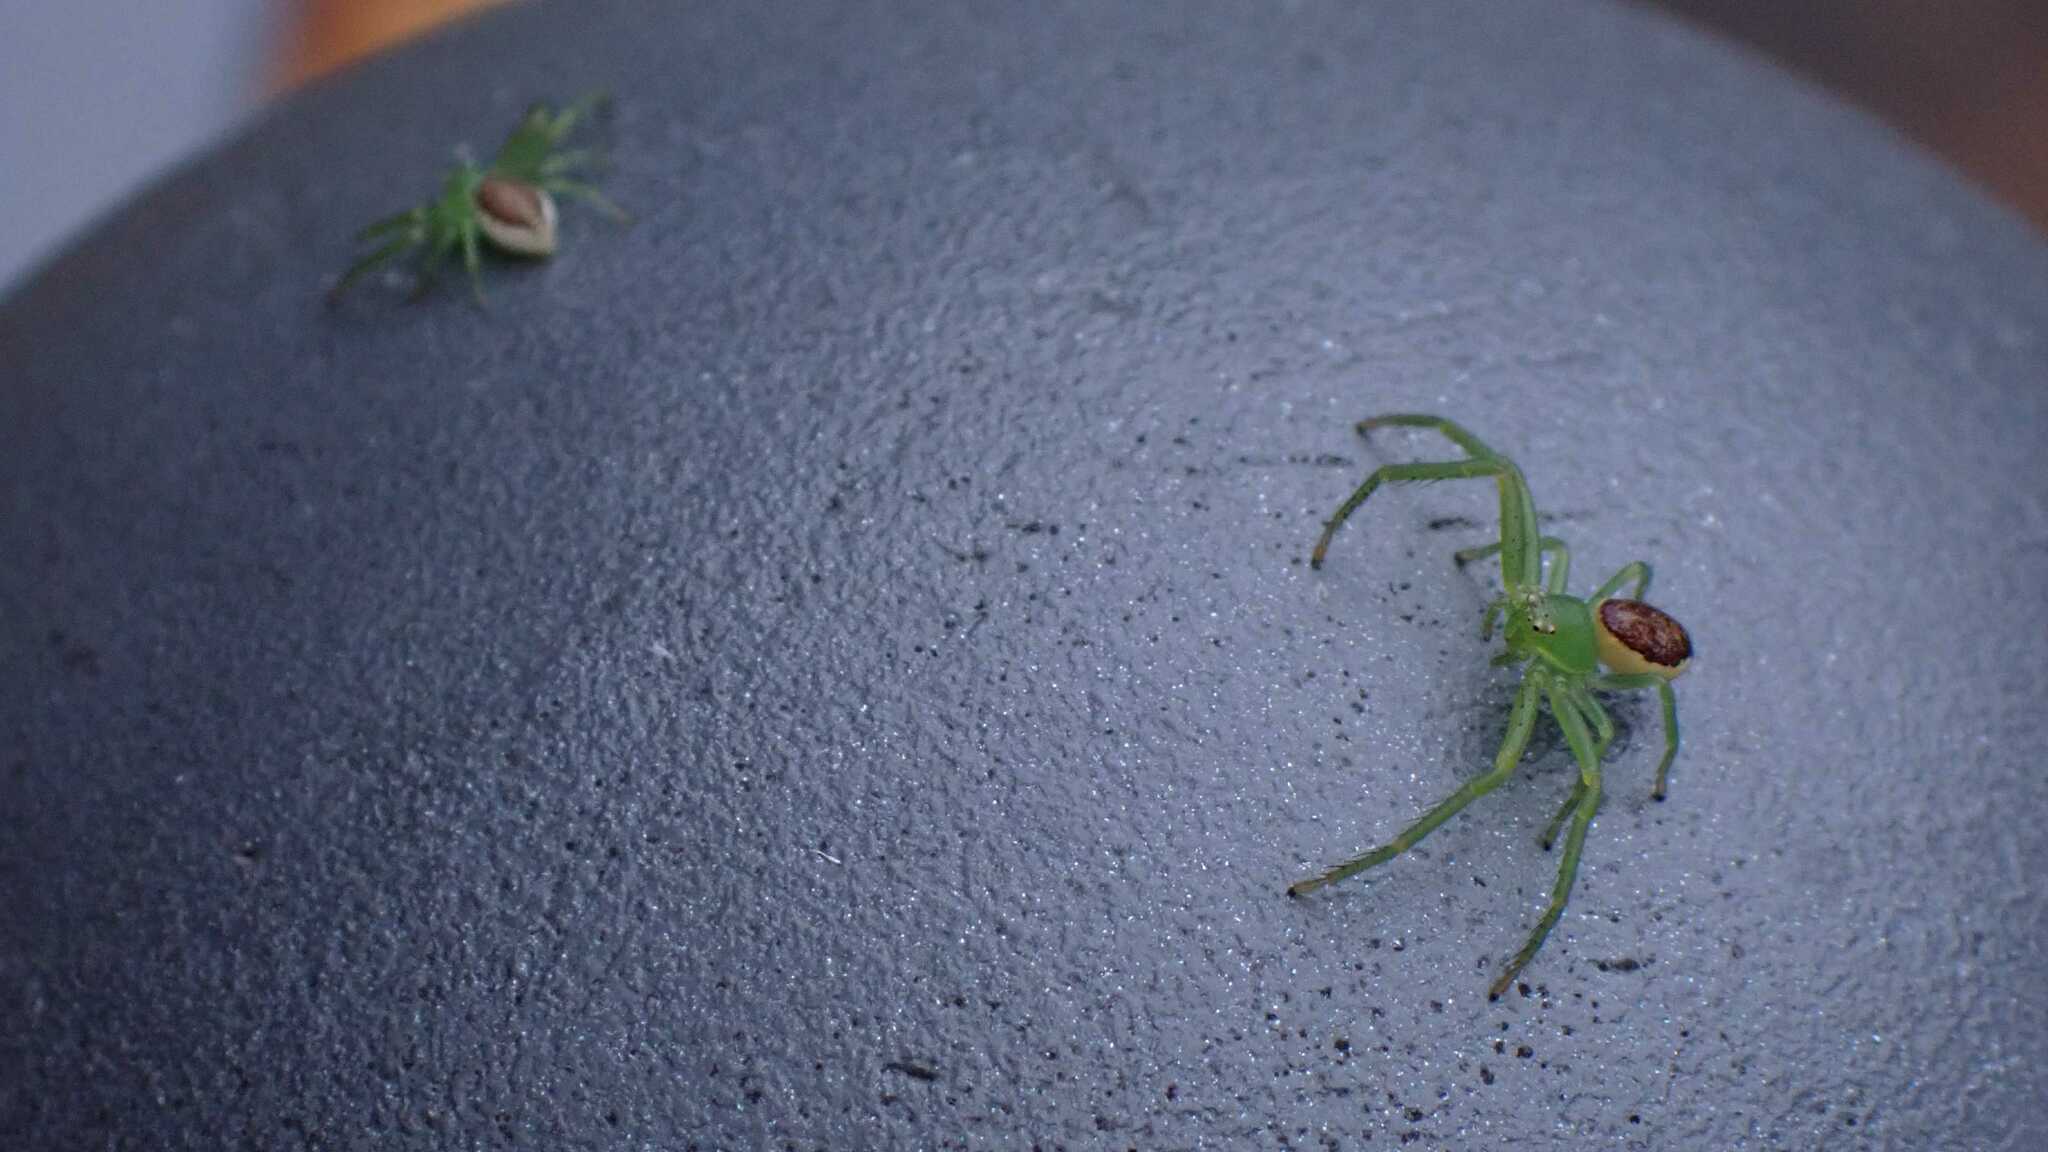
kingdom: Animalia
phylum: Arthropoda
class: Arachnida
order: Araneae
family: Thomisidae
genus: Diaea
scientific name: Diaea dorsata
